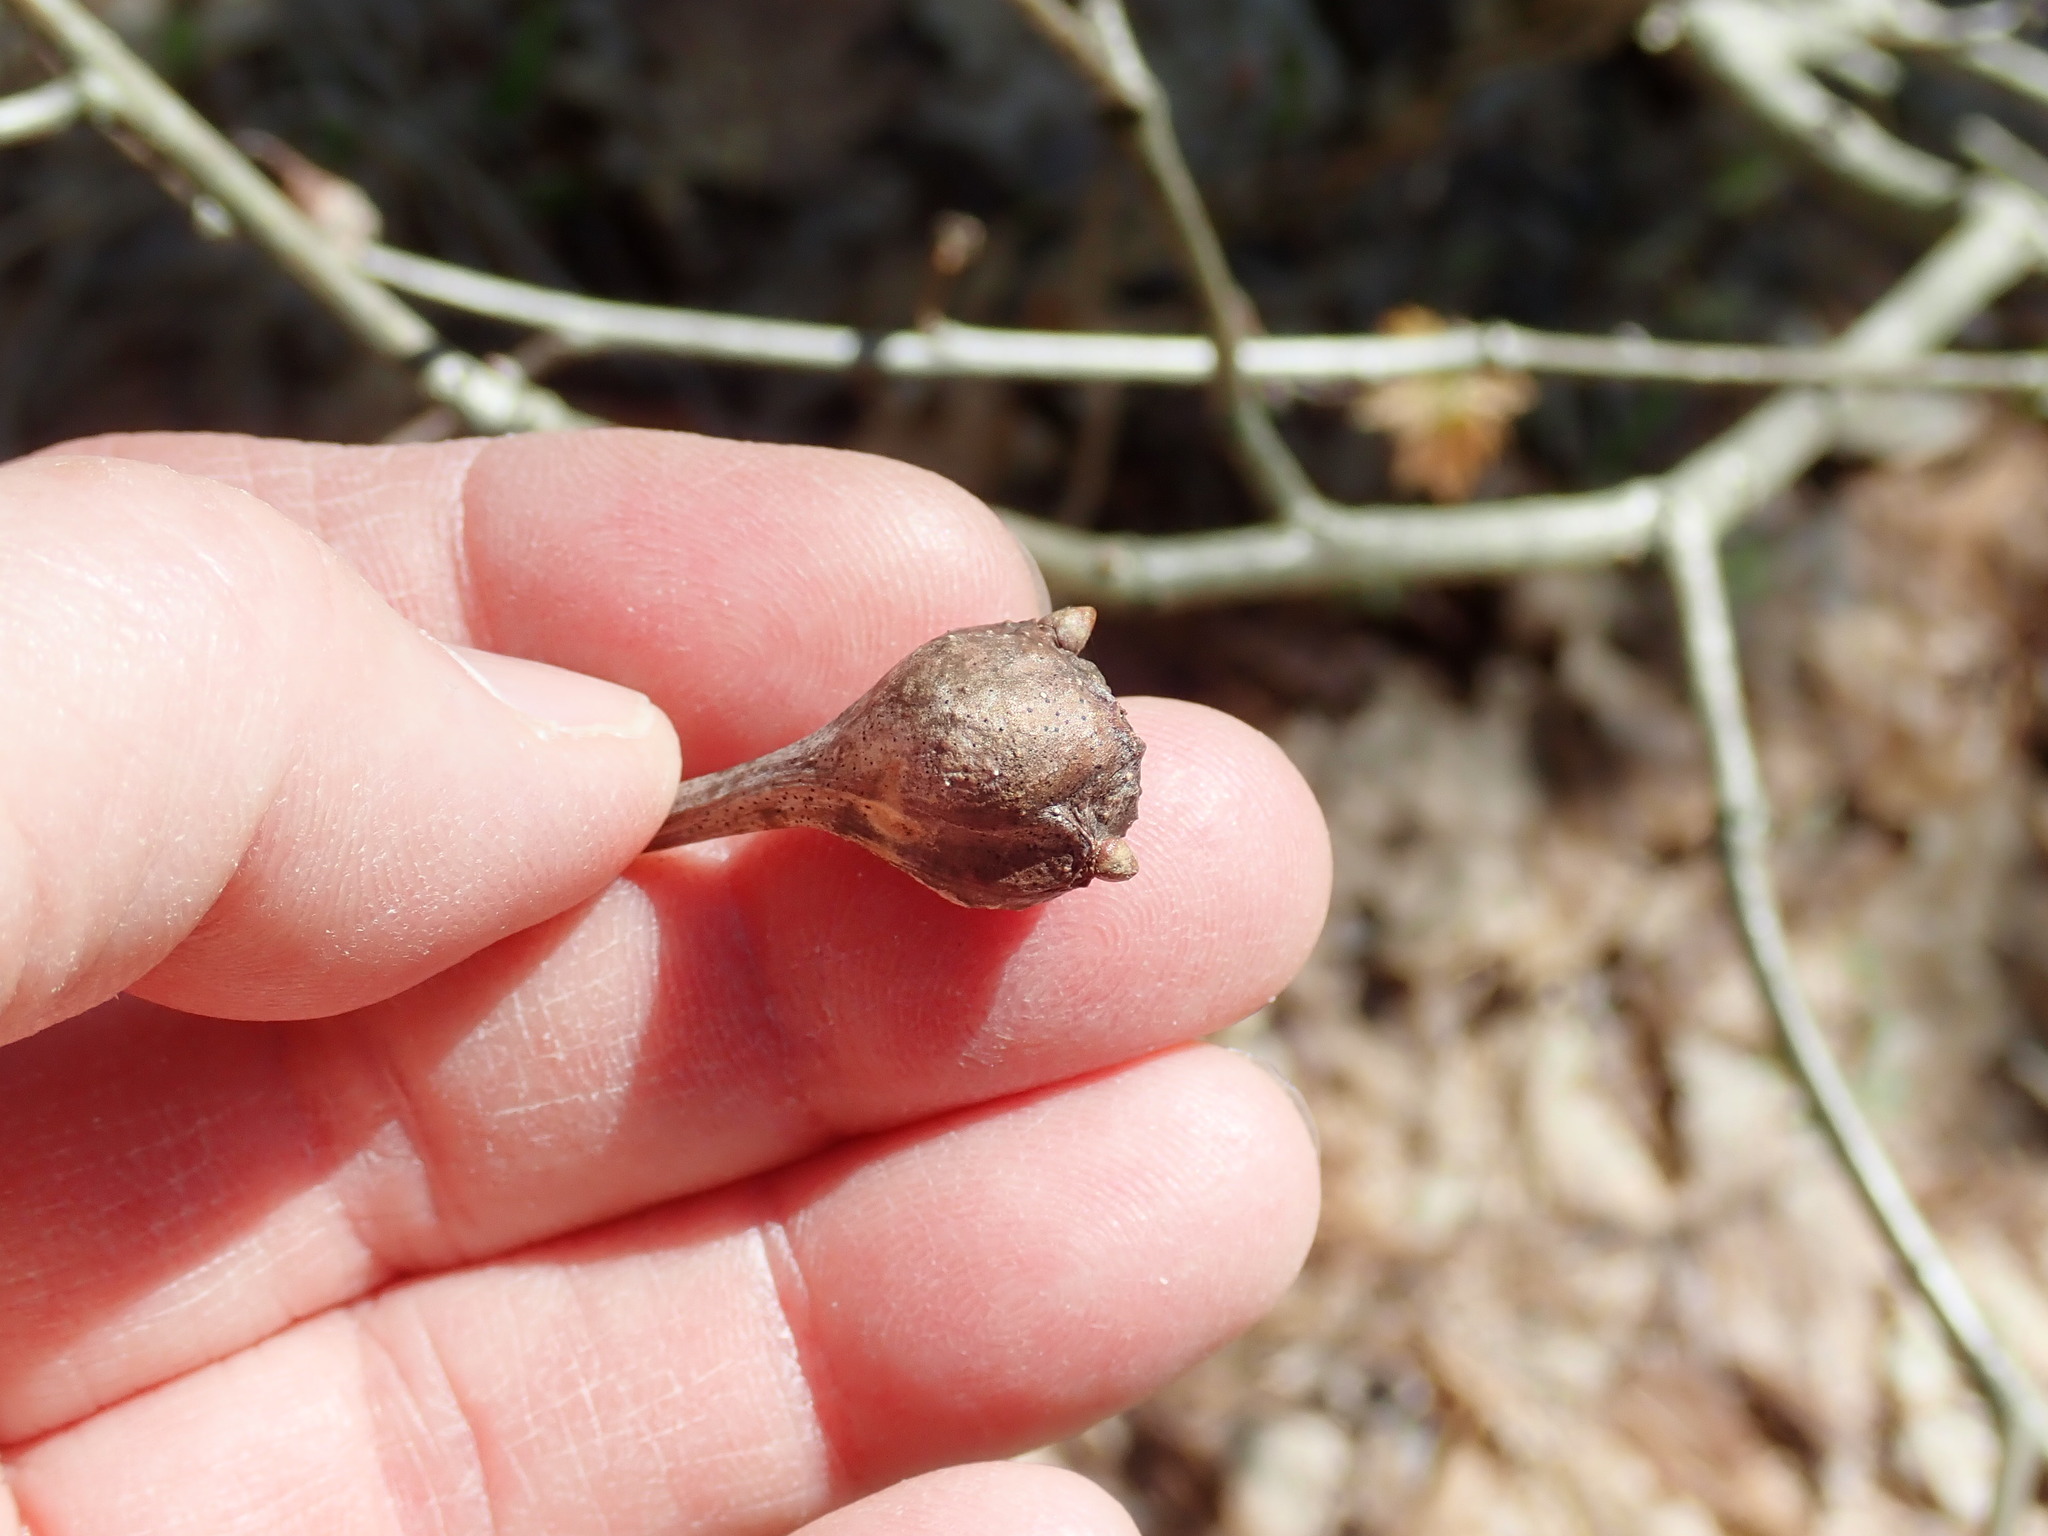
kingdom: Animalia
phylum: Arthropoda
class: Insecta
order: Hymenoptera
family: Cynipidae
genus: Callirhytis
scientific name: Callirhytis clavula
